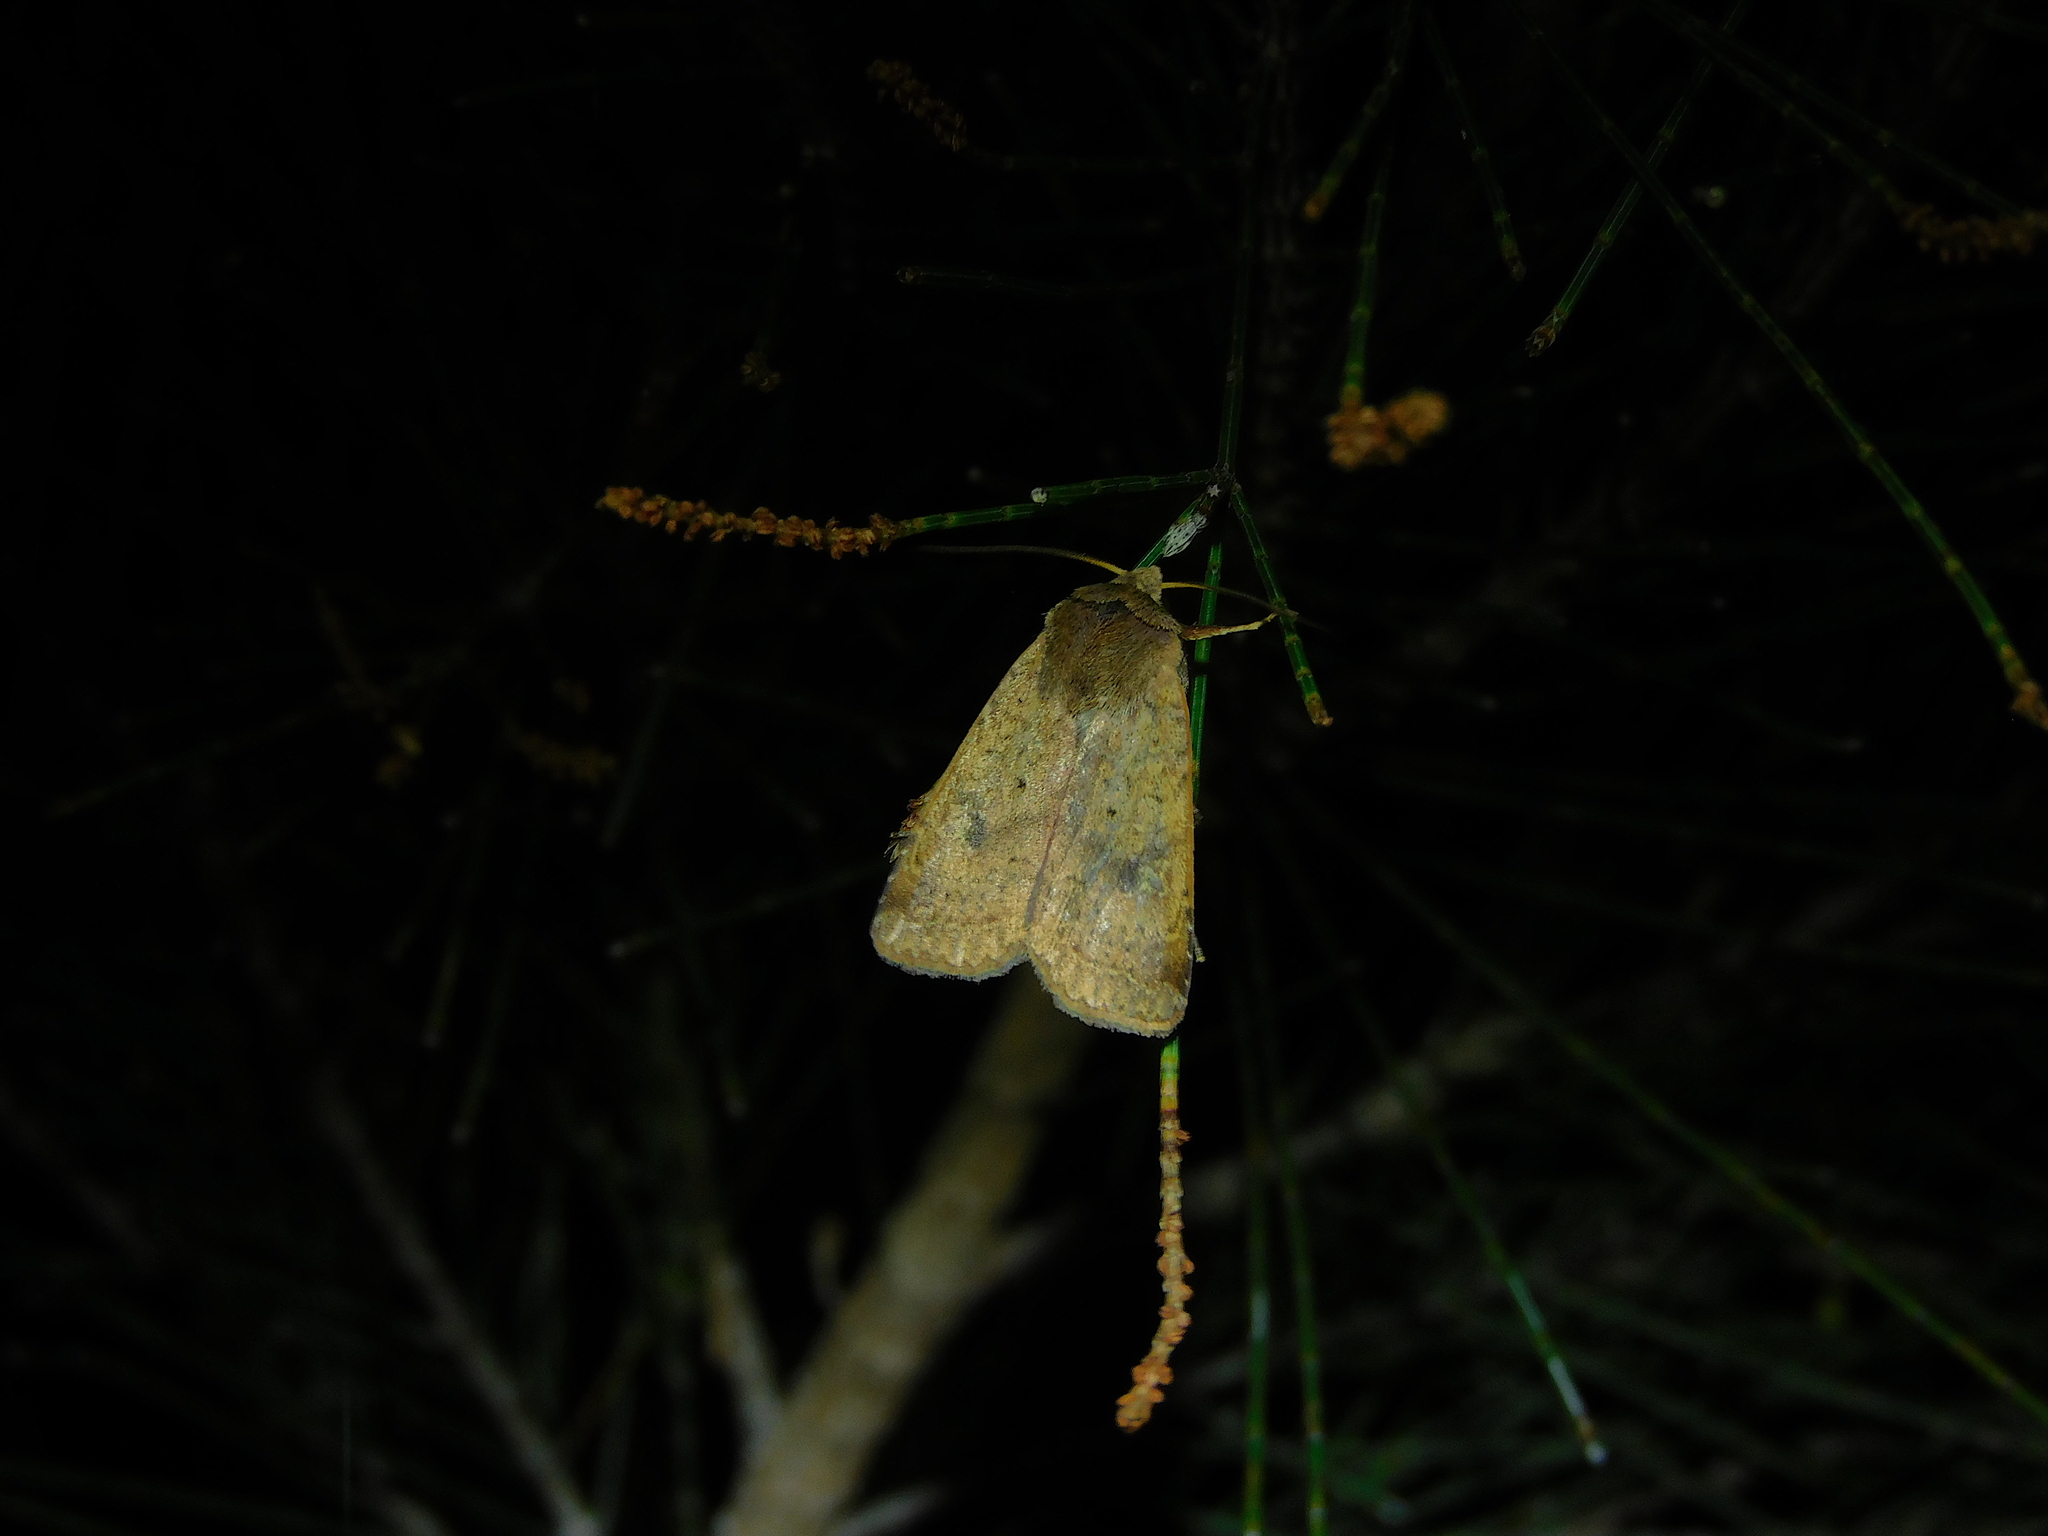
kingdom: Animalia
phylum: Arthropoda
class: Insecta
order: Lepidoptera
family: Noctuidae
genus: Diarsia
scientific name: Diarsia intermixta
